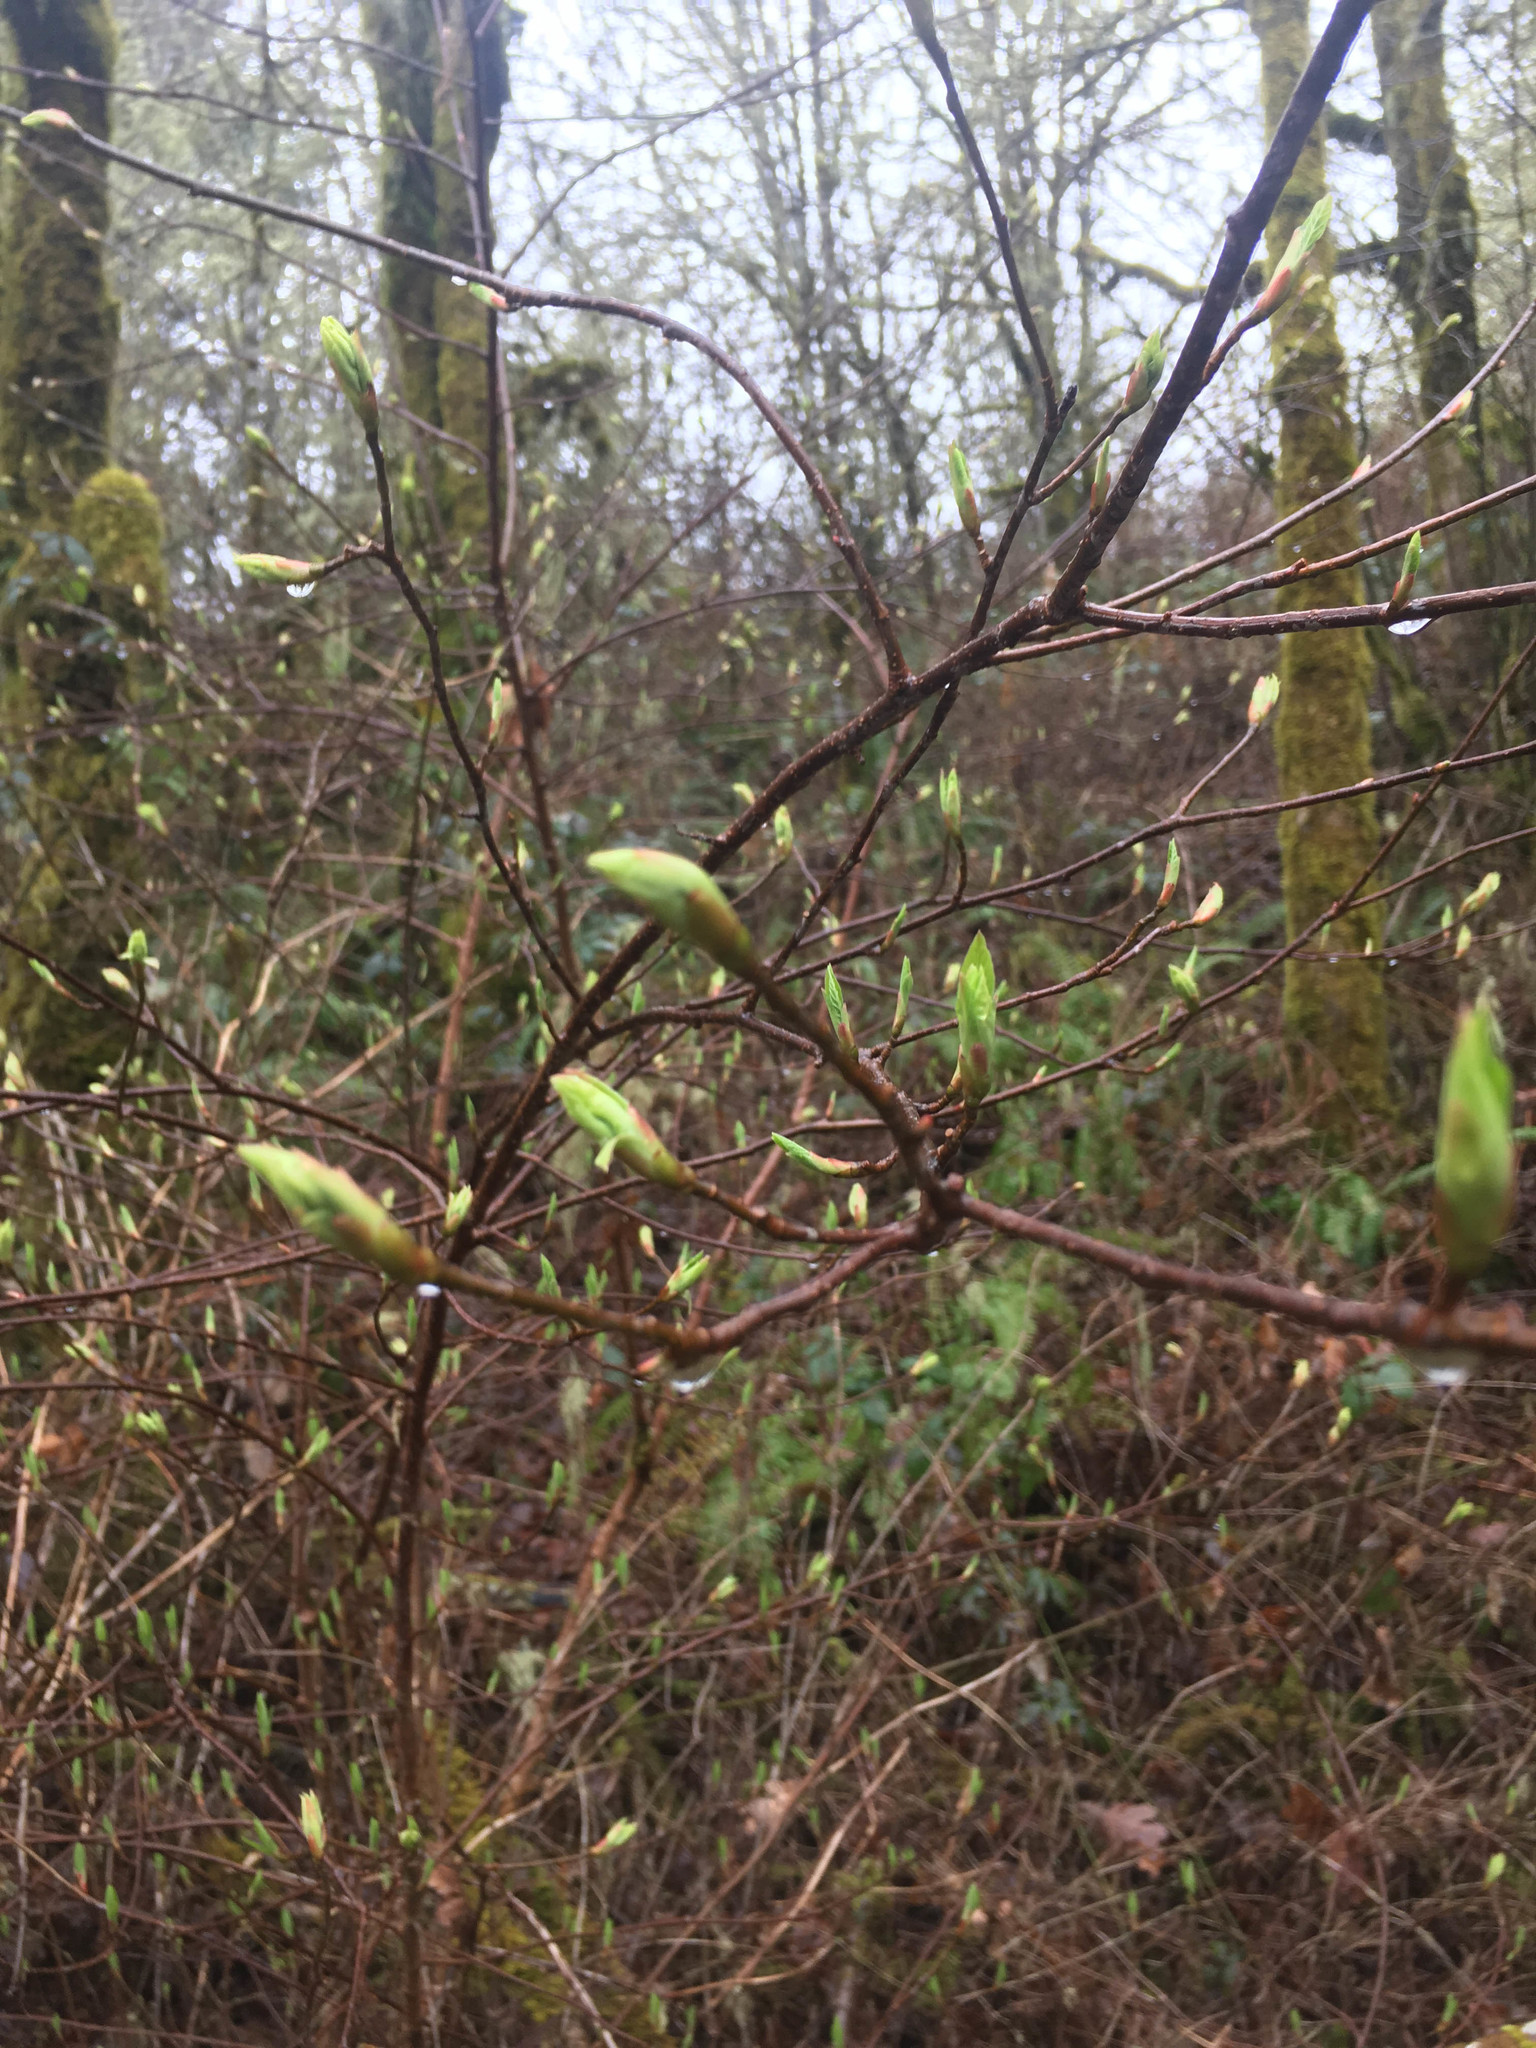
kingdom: Plantae
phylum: Tracheophyta
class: Magnoliopsida
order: Rosales
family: Rosaceae
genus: Oemleria
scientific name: Oemleria cerasiformis
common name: Osoberry
